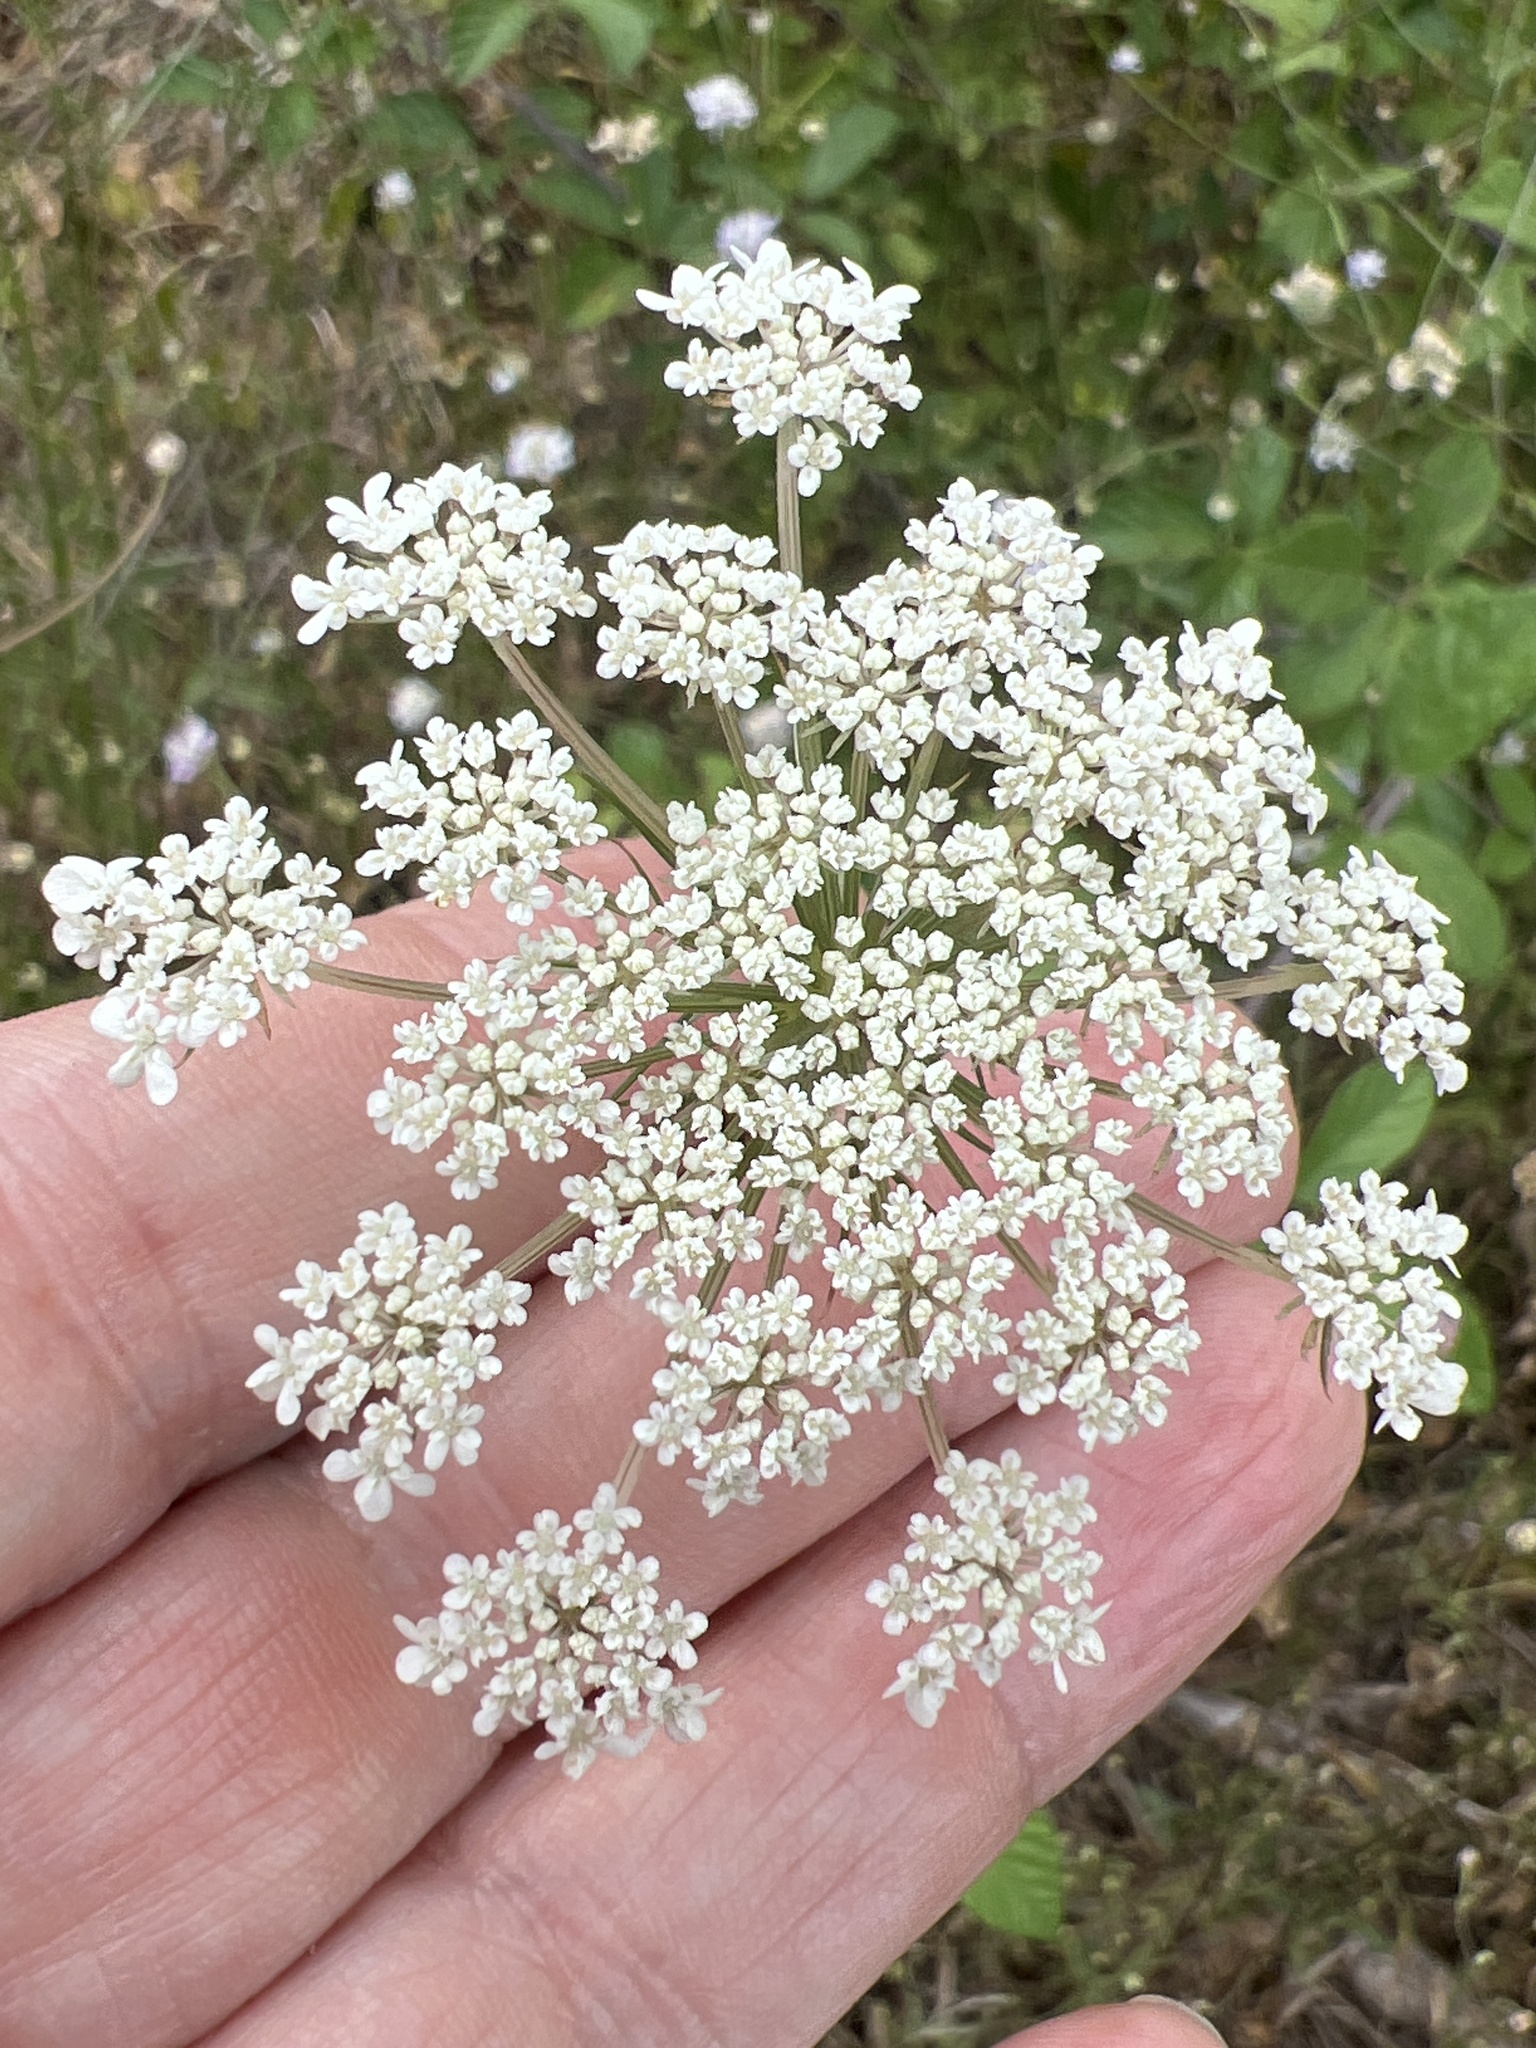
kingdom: Plantae
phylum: Tracheophyta
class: Magnoliopsida
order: Apiales
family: Apiaceae
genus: Daucus
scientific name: Daucus carota
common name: Wild carrot
